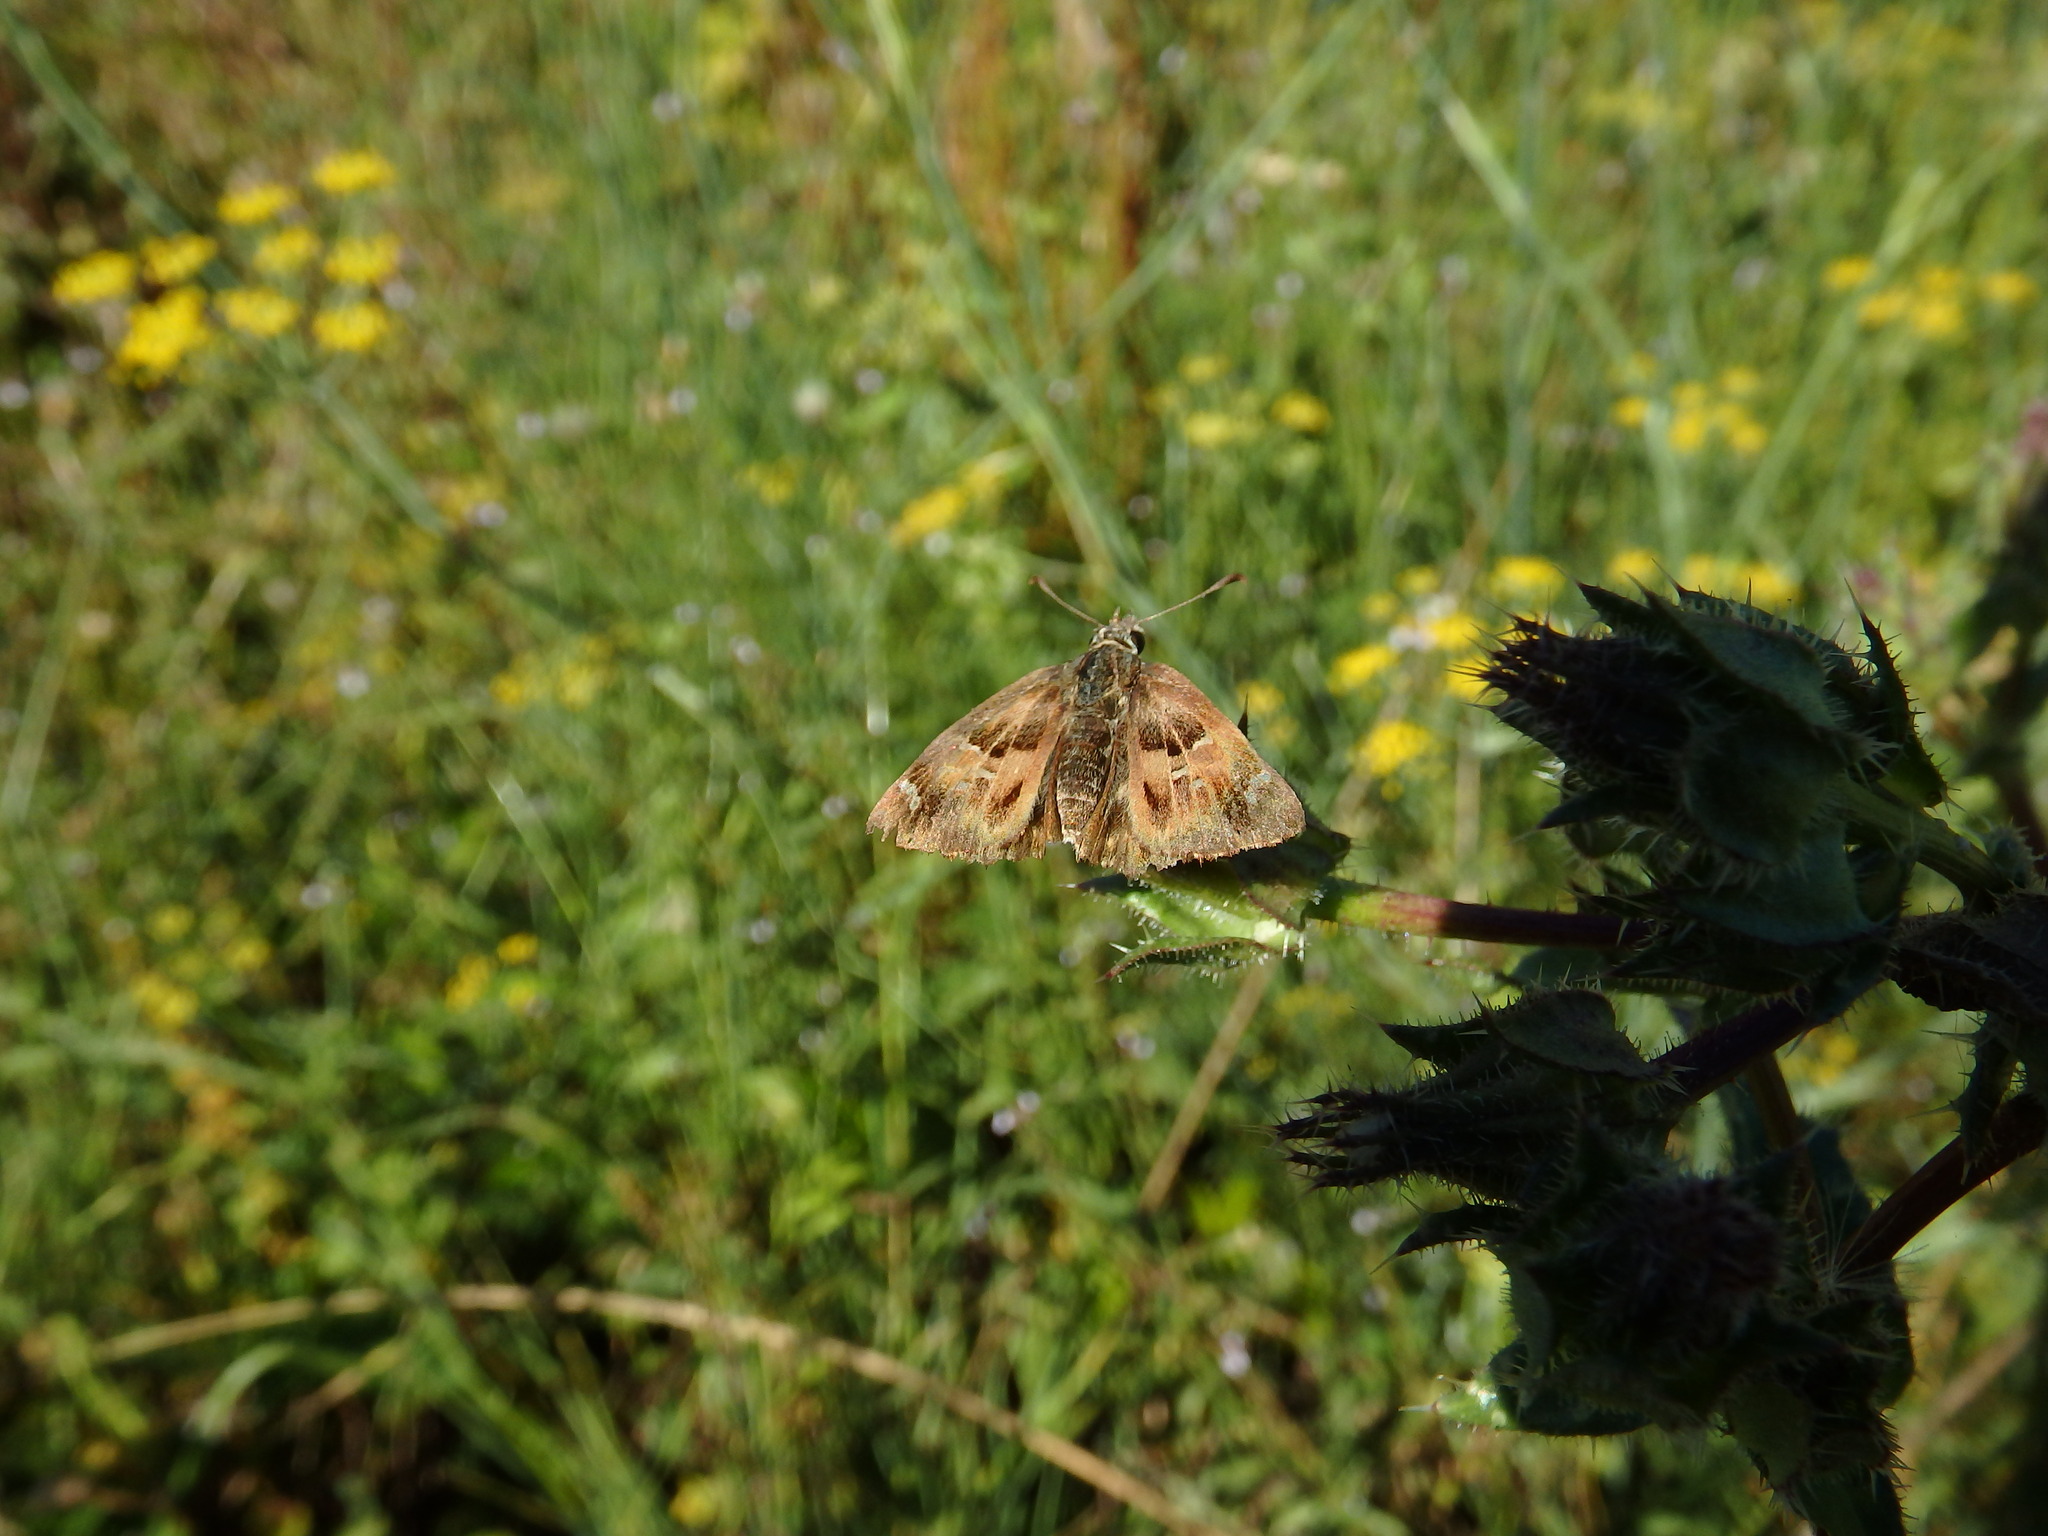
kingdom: Animalia
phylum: Arthropoda
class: Insecta
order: Lepidoptera
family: Hesperiidae
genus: Carcharodus
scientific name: Carcharodus alceae
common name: Mallow skipper
